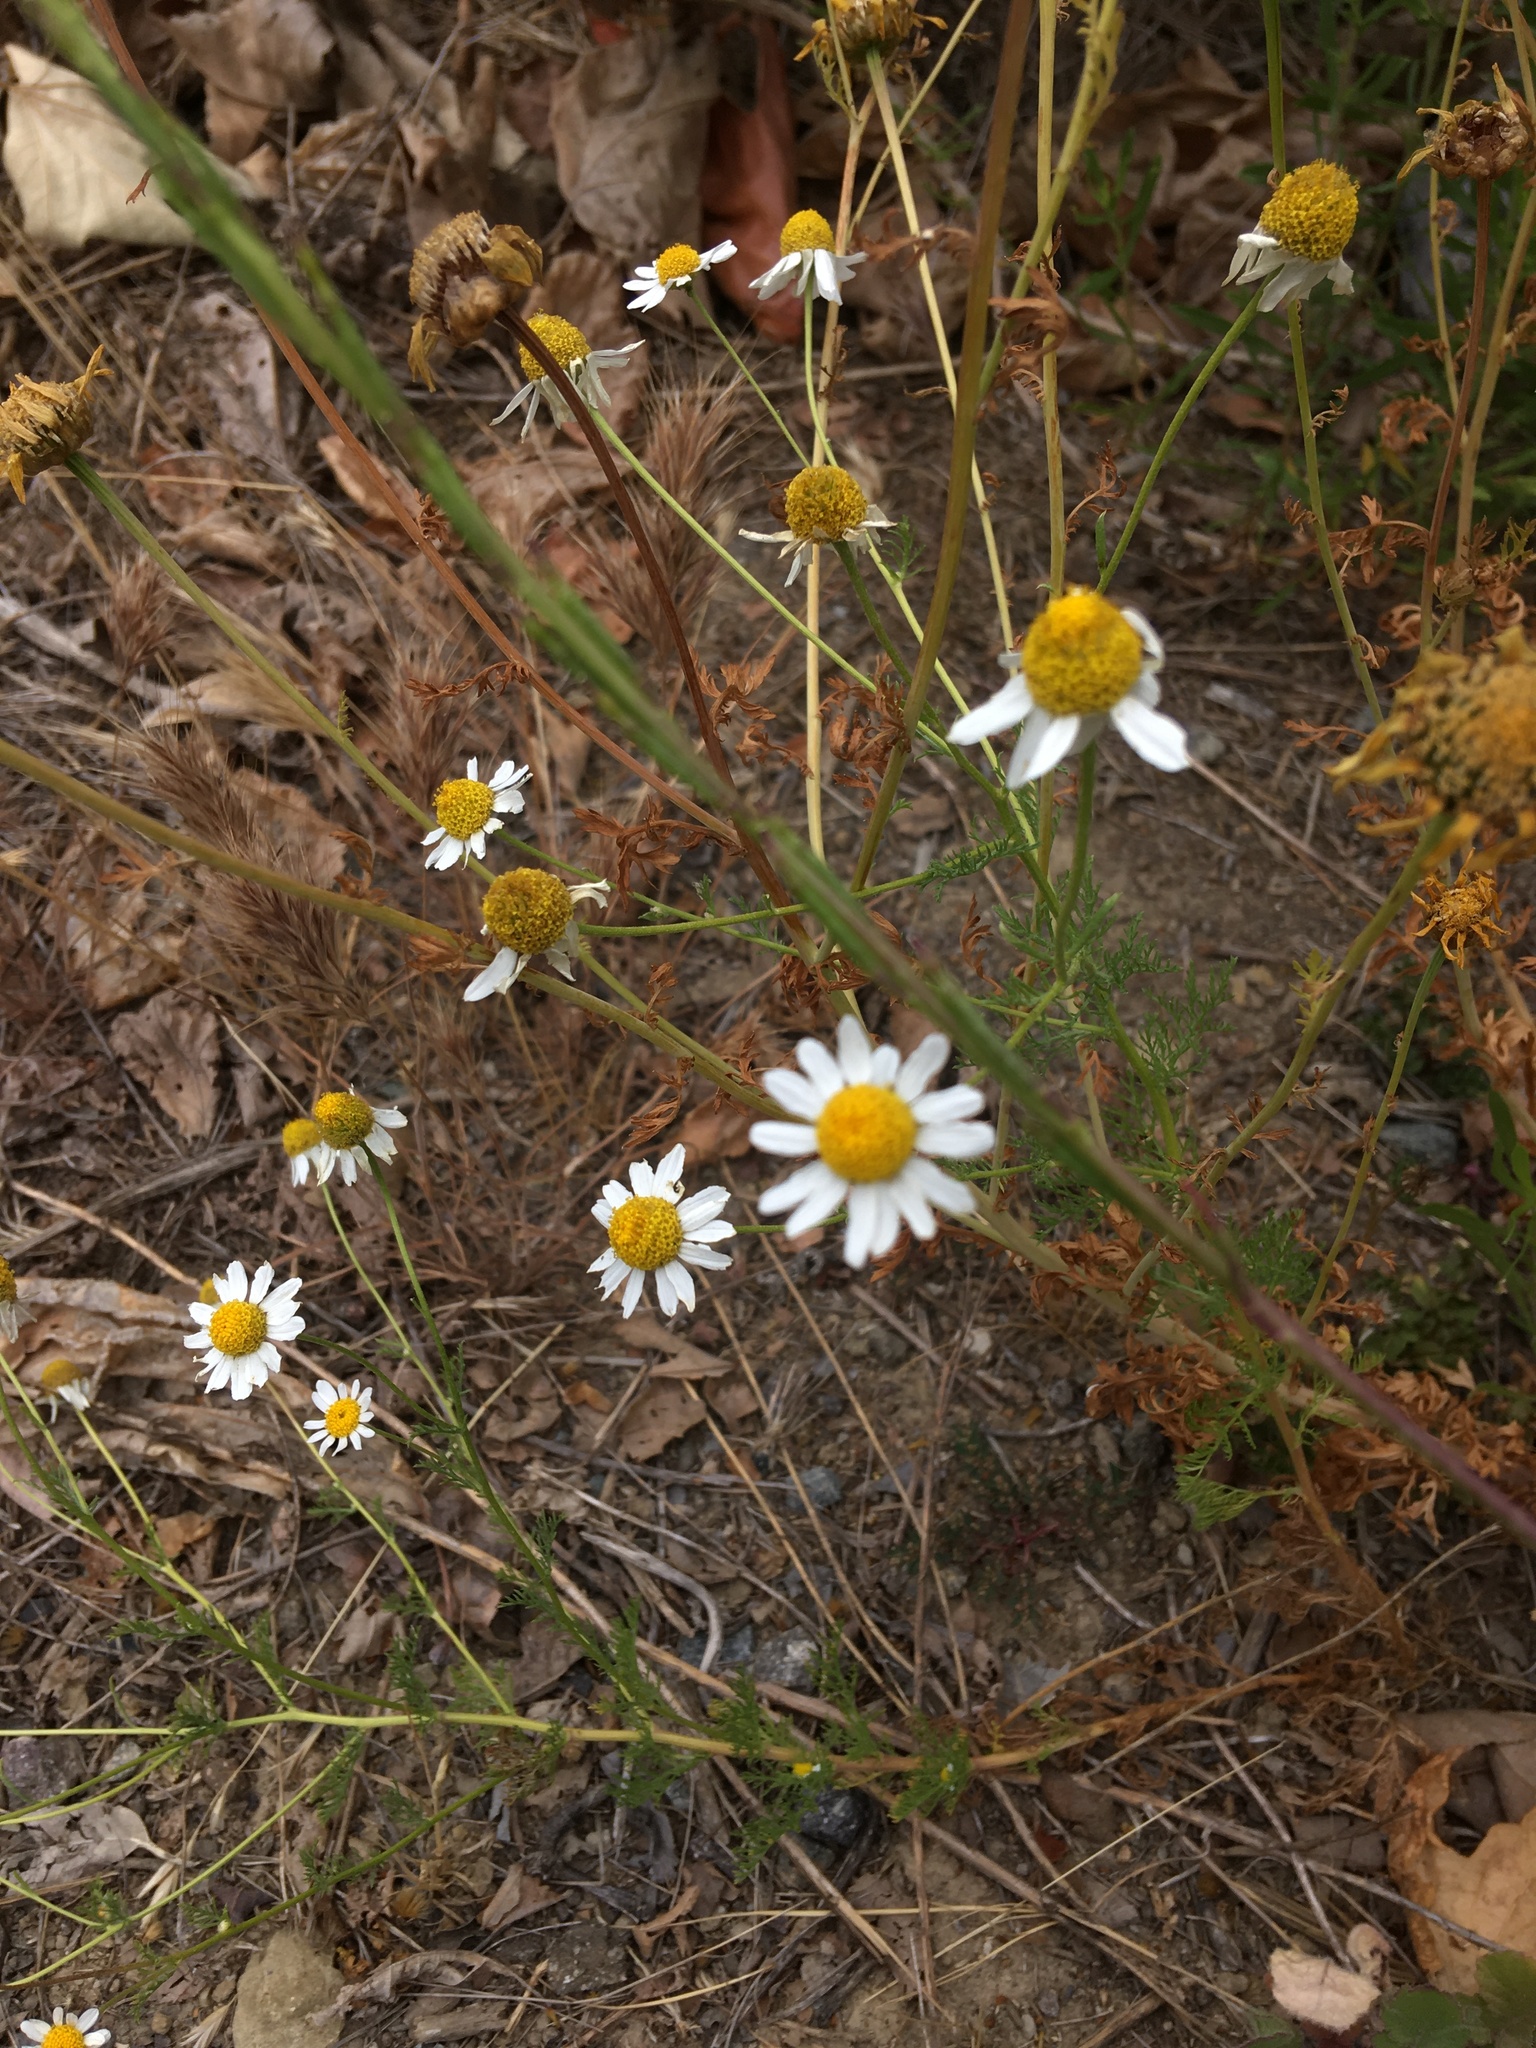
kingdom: Plantae
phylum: Tracheophyta
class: Magnoliopsida
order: Asterales
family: Asteraceae
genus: Anthemis
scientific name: Anthemis cotula
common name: Stinking chamomile
